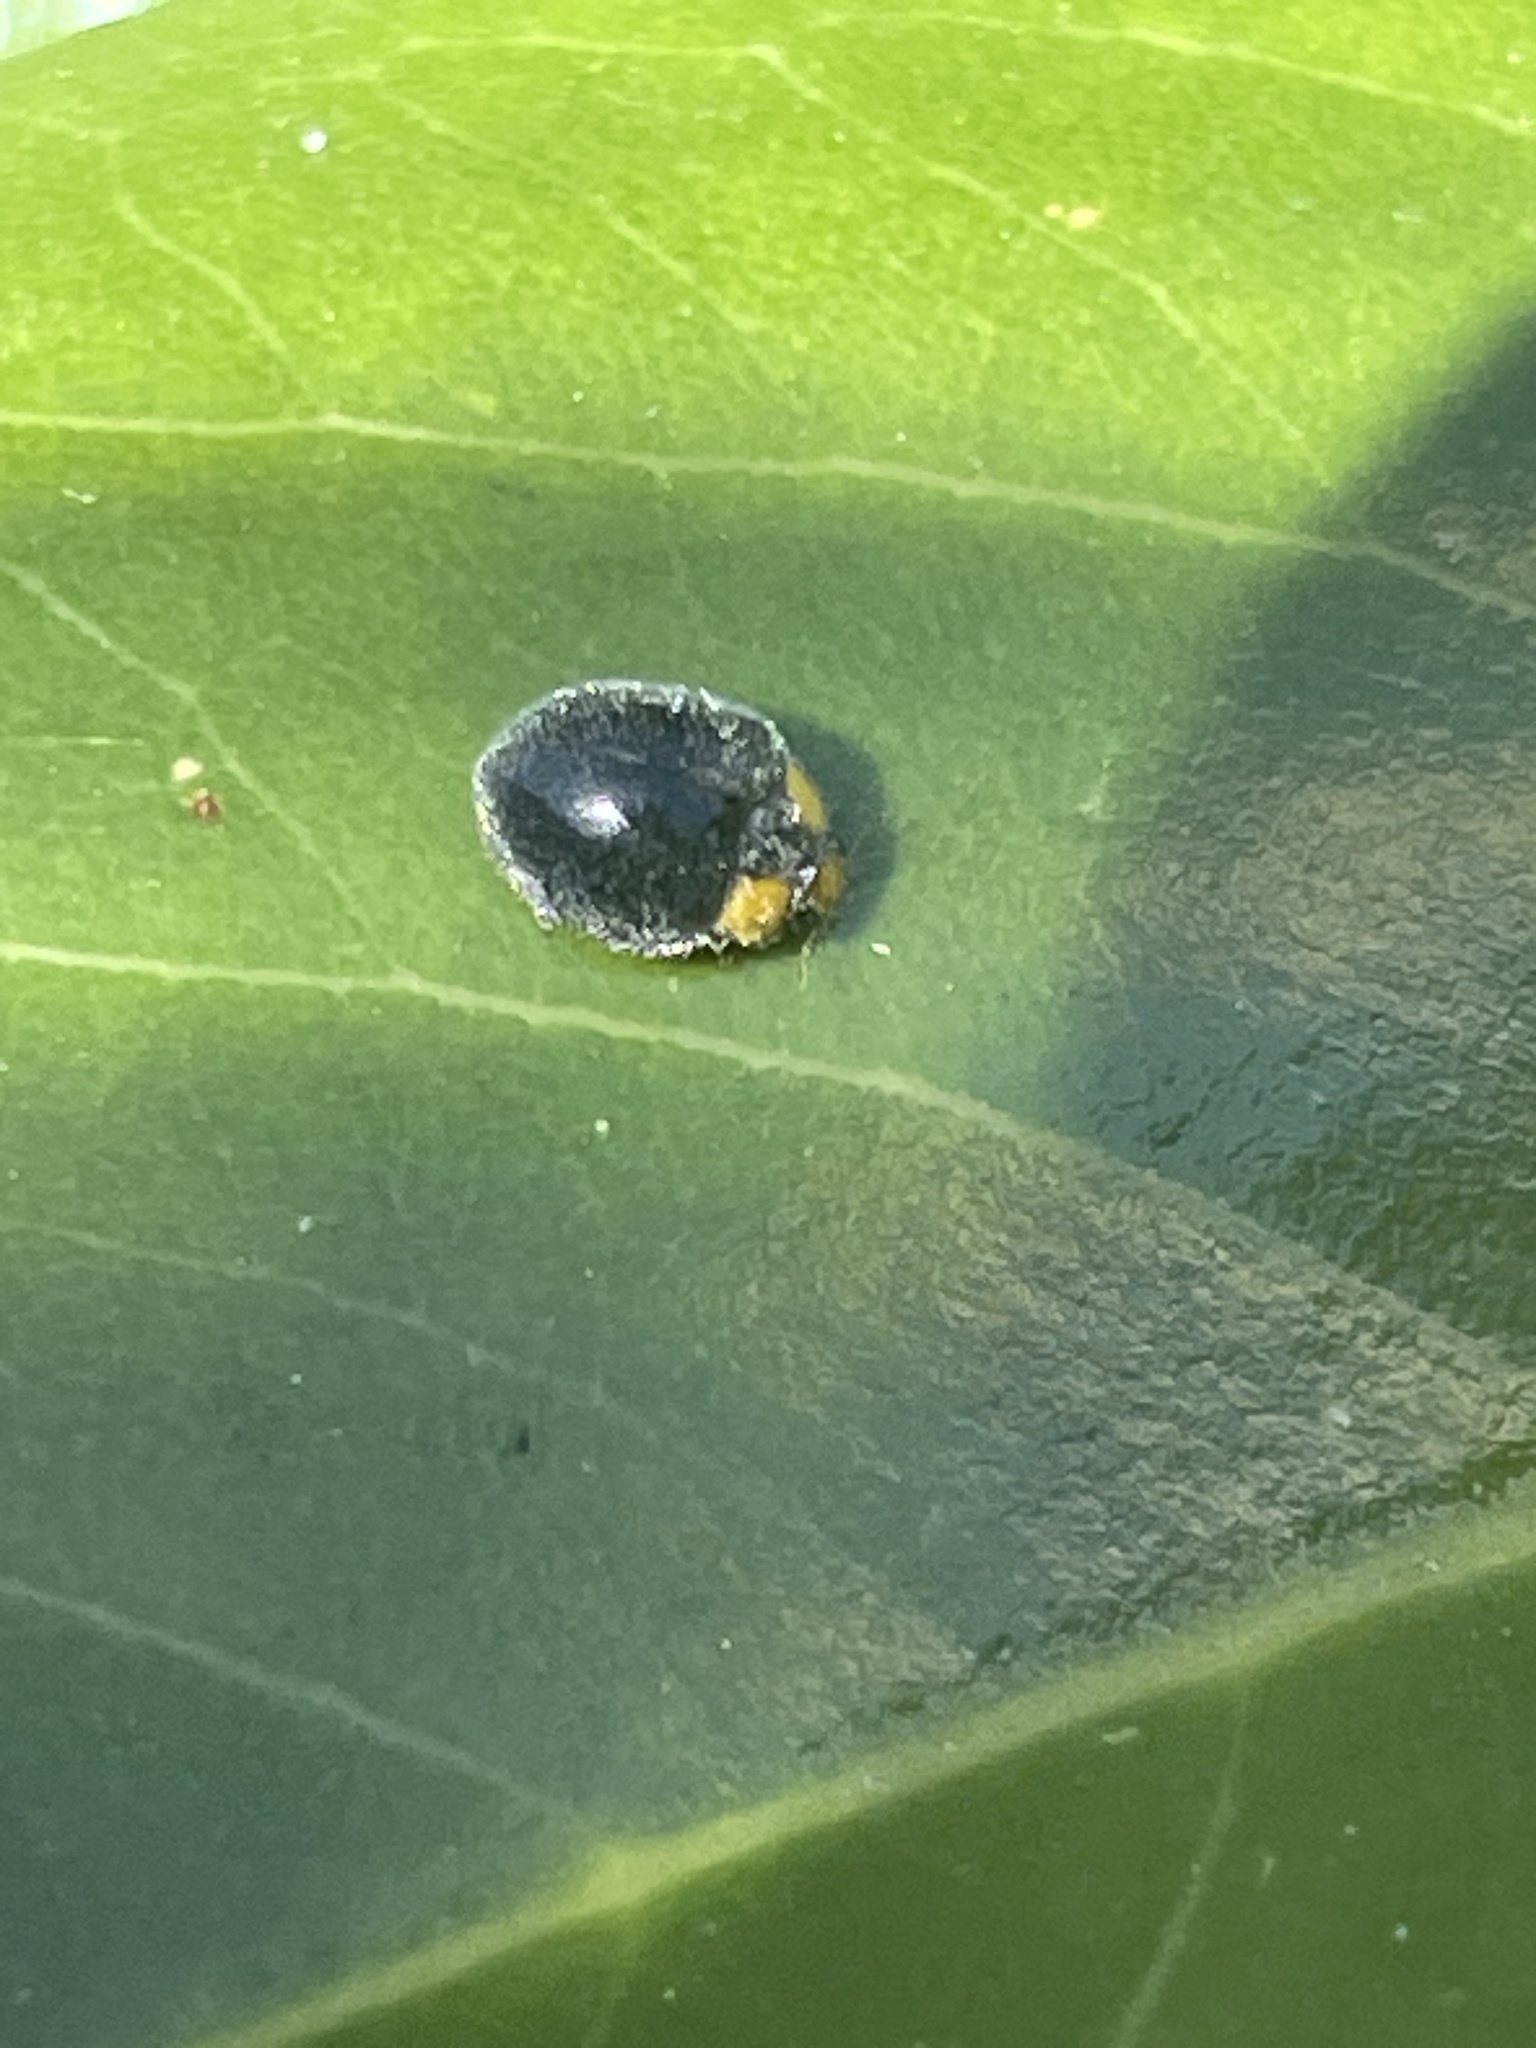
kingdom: Animalia
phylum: Arthropoda
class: Insecta
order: Coleoptera
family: Coccinellidae
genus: Scymnodes
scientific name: Scymnodes lividigaster
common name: Yellowshouldered lady beetle
